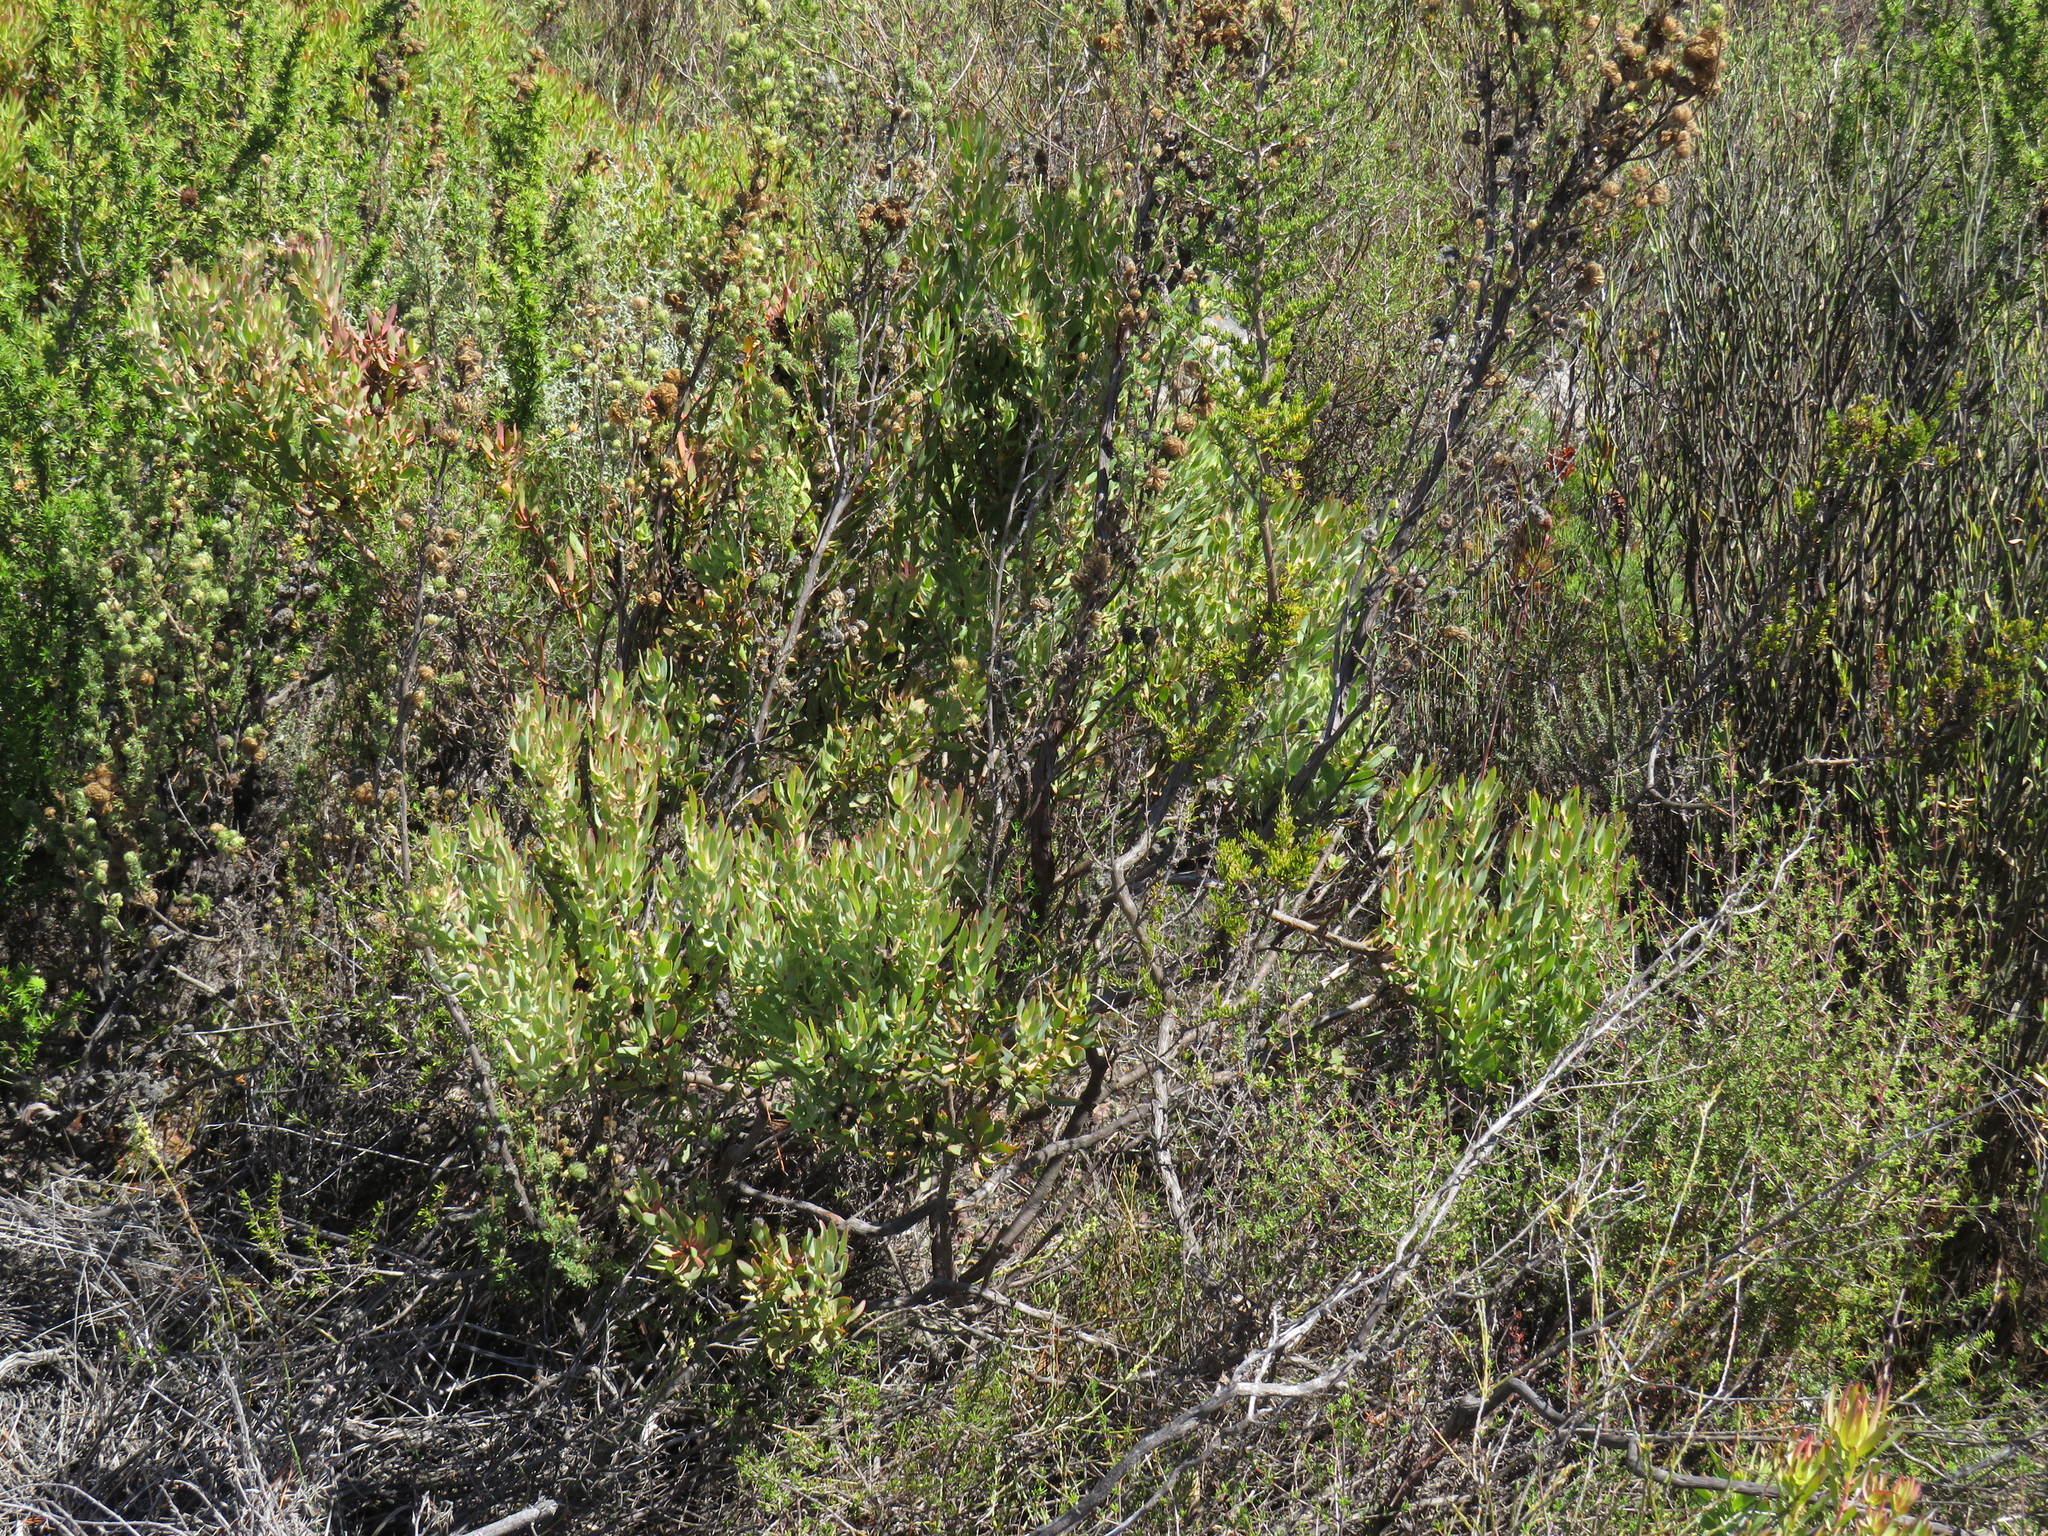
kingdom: Plantae
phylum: Tracheophyta
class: Magnoliopsida
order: Proteales
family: Proteaceae
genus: Leucadendron
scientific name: Leucadendron glaberrimum
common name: Common oily conebush
